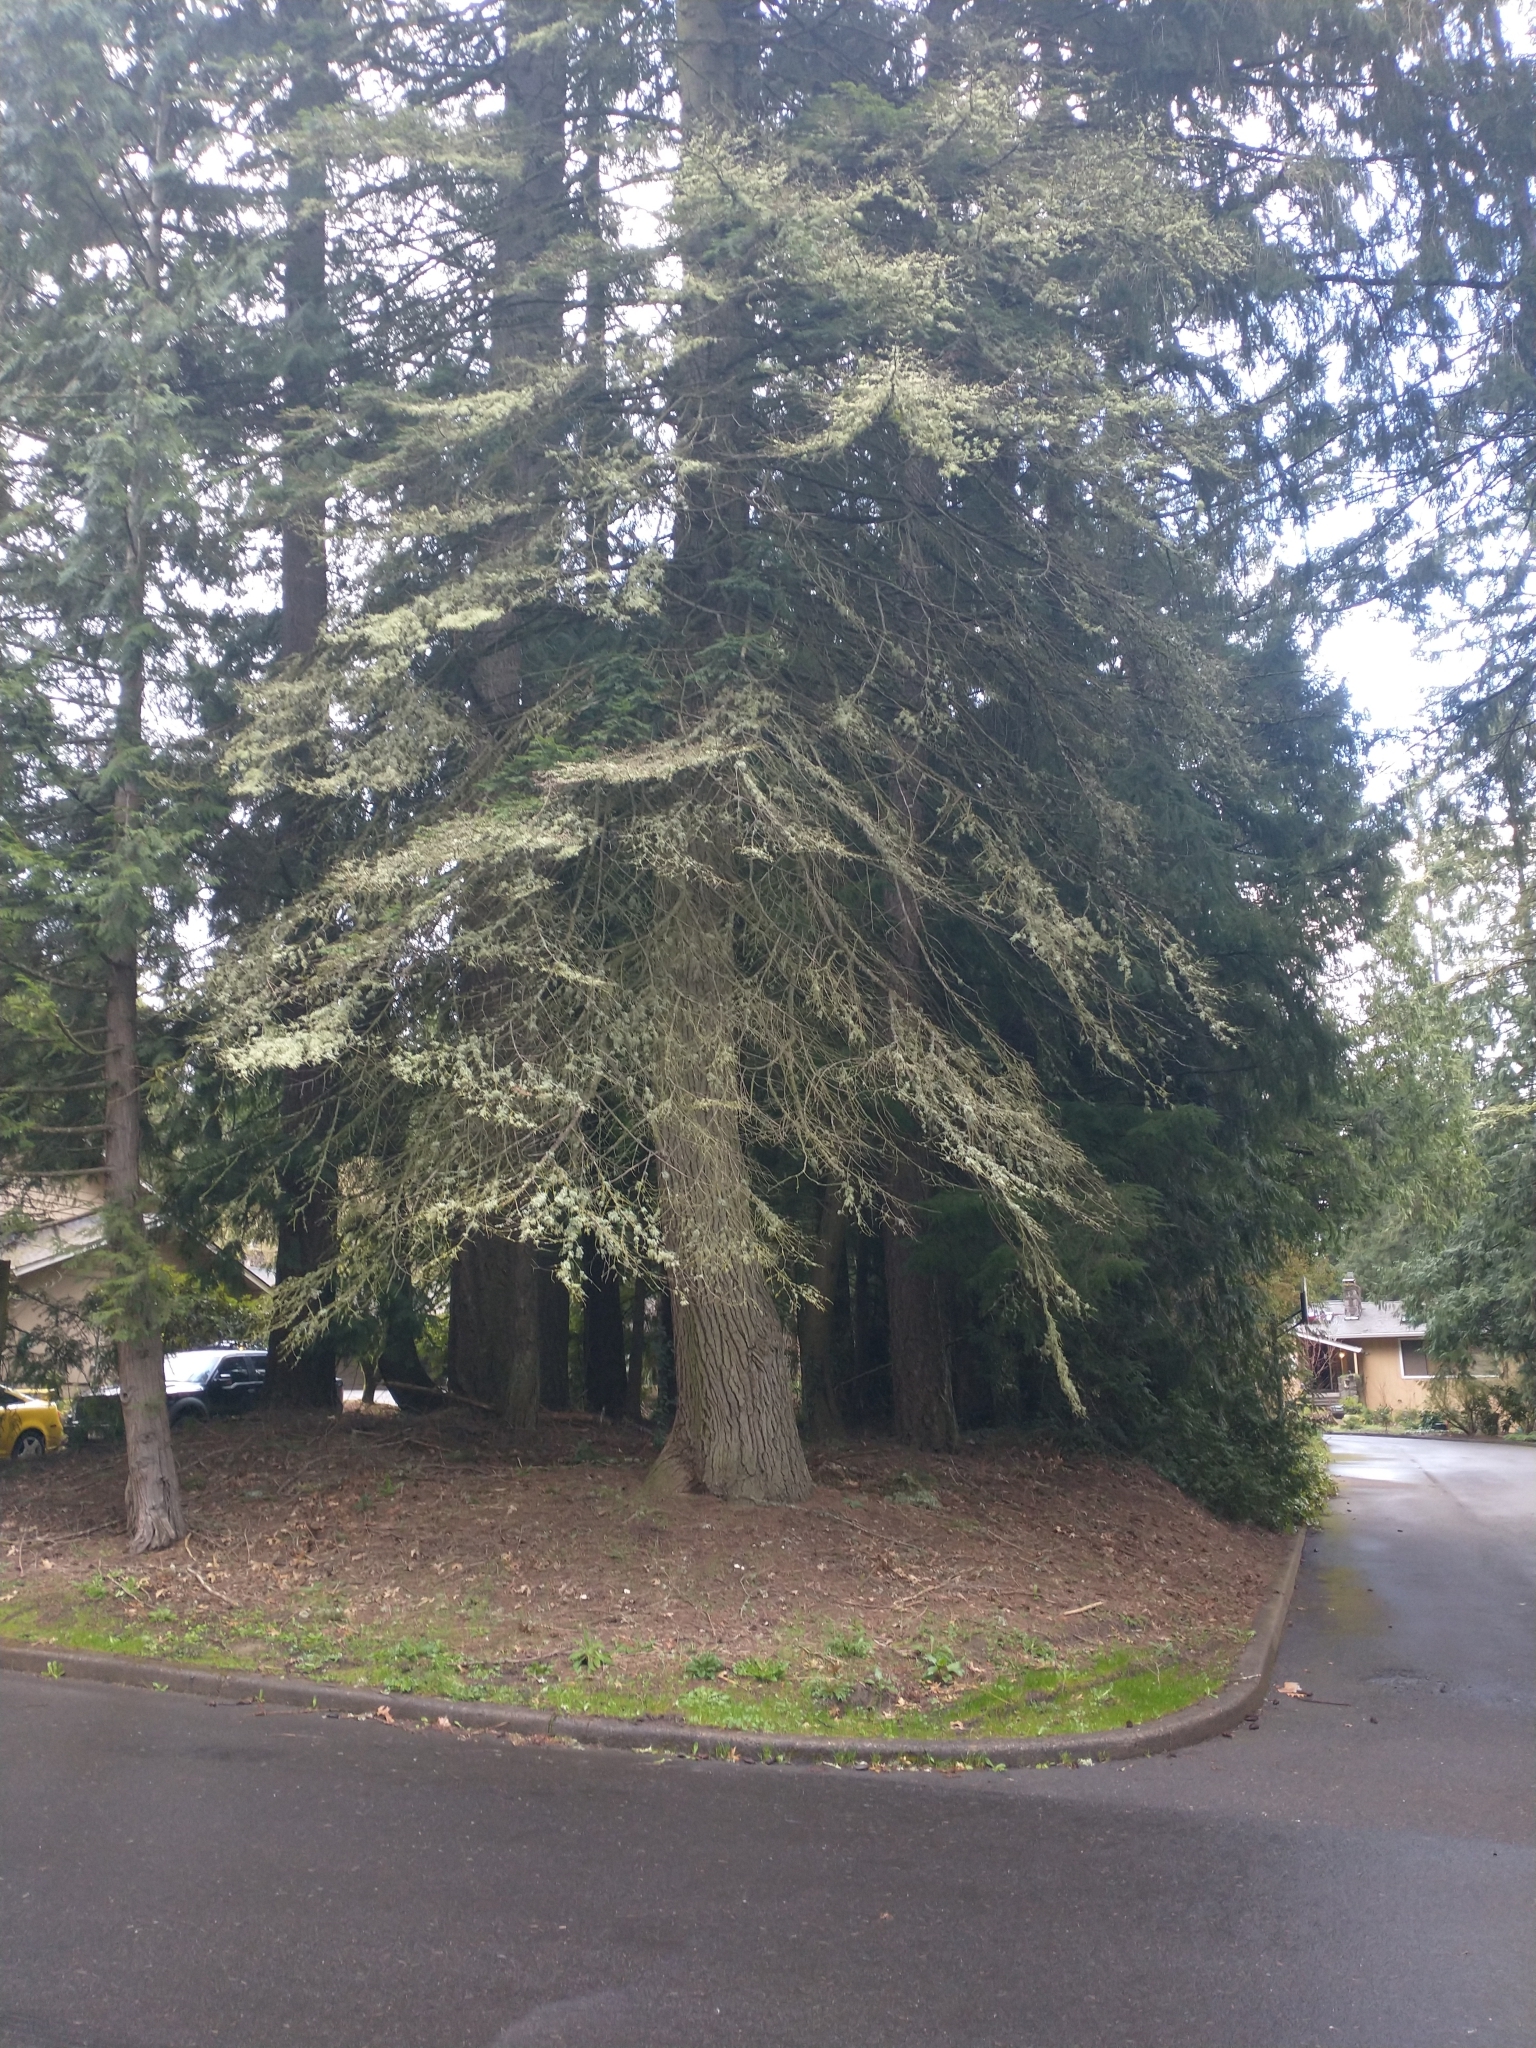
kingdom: Plantae
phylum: Tracheophyta
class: Pinopsida
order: Pinales
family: Pinaceae
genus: Abies
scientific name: Abies grandis
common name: Giant fir
